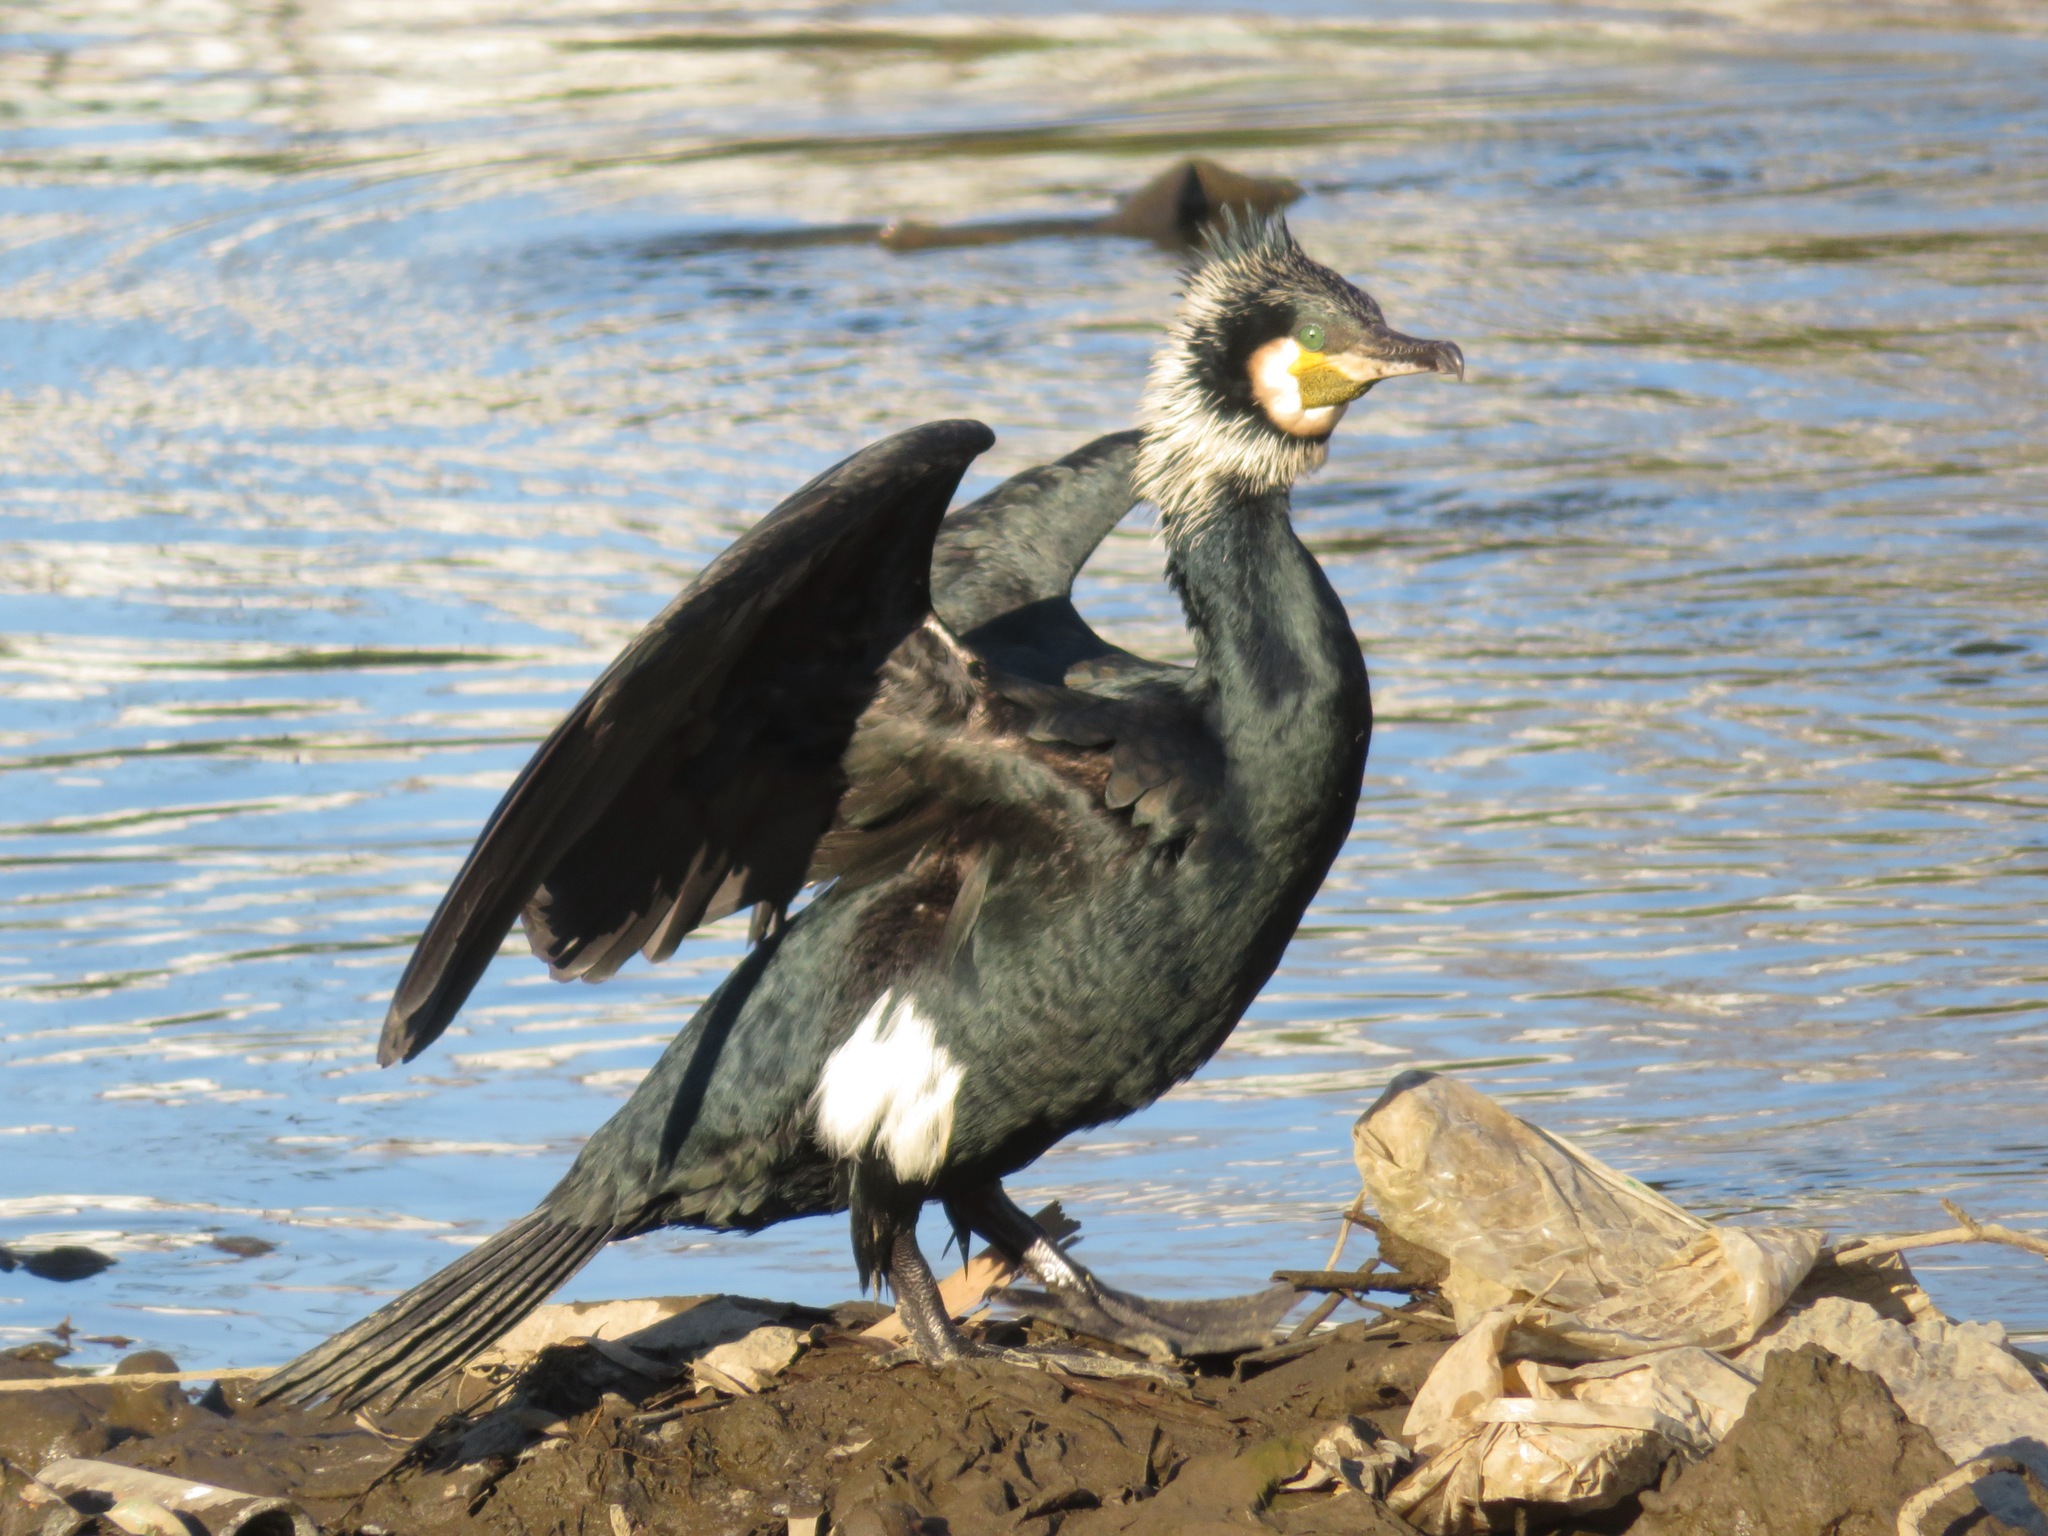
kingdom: Animalia
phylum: Chordata
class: Aves
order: Suliformes
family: Phalacrocoracidae
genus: Phalacrocorax
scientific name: Phalacrocorax carbo
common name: Great cormorant
